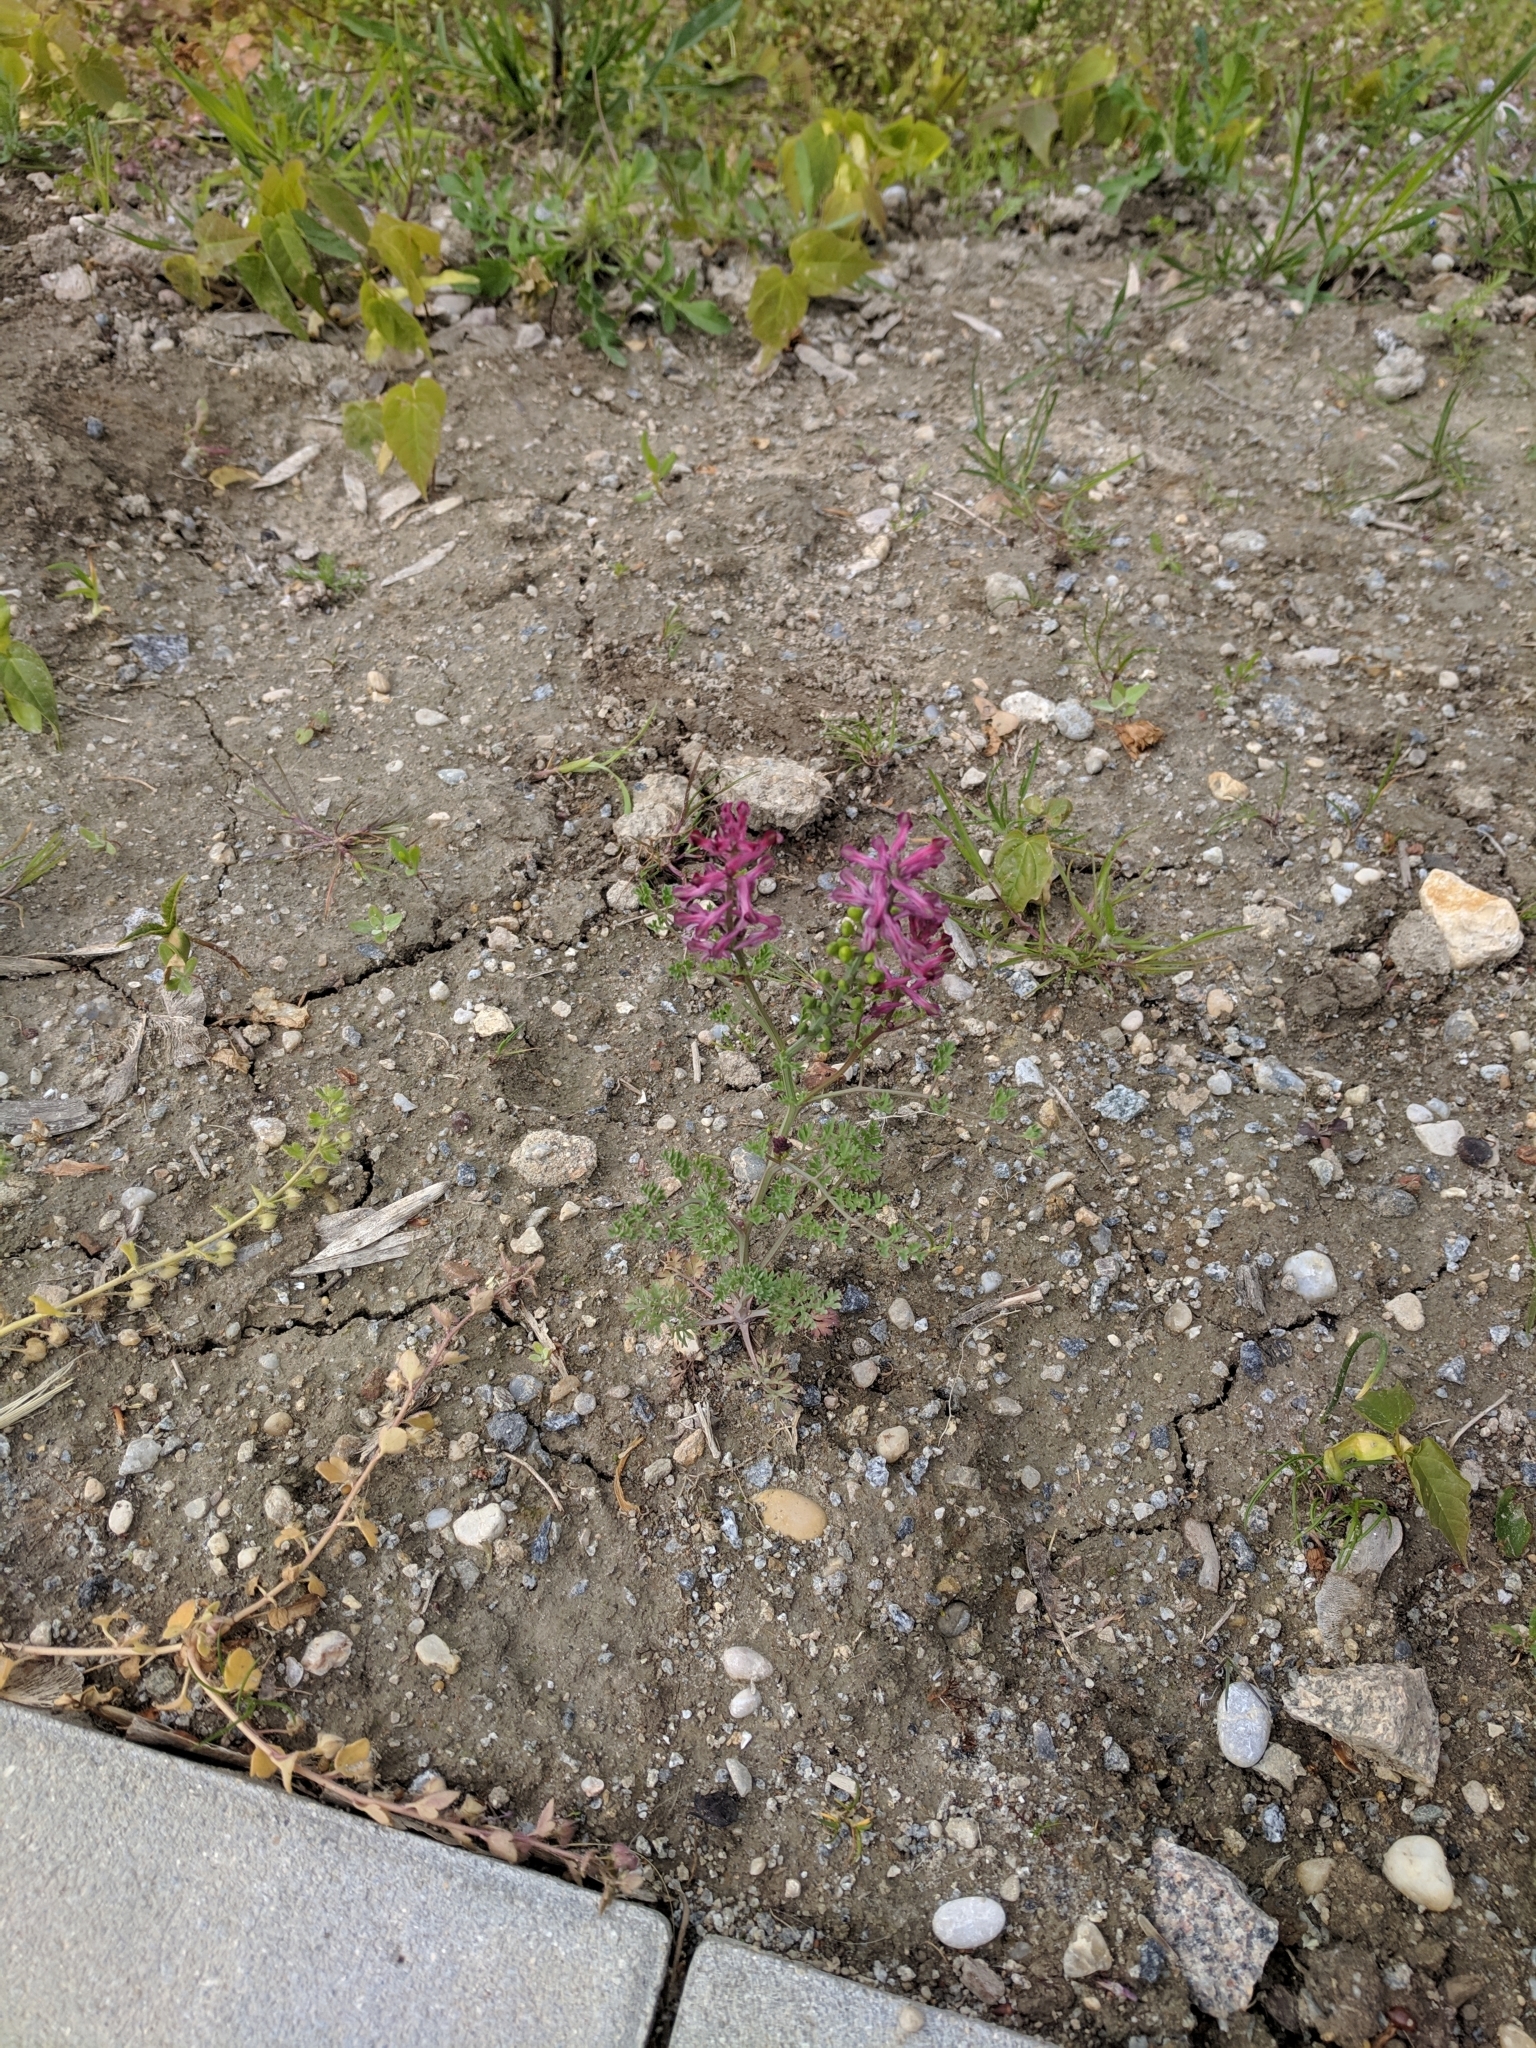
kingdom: Plantae
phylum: Tracheophyta
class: Magnoliopsida
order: Ranunculales
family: Papaveraceae
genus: Fumaria
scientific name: Fumaria officinalis
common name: Common fumitory
